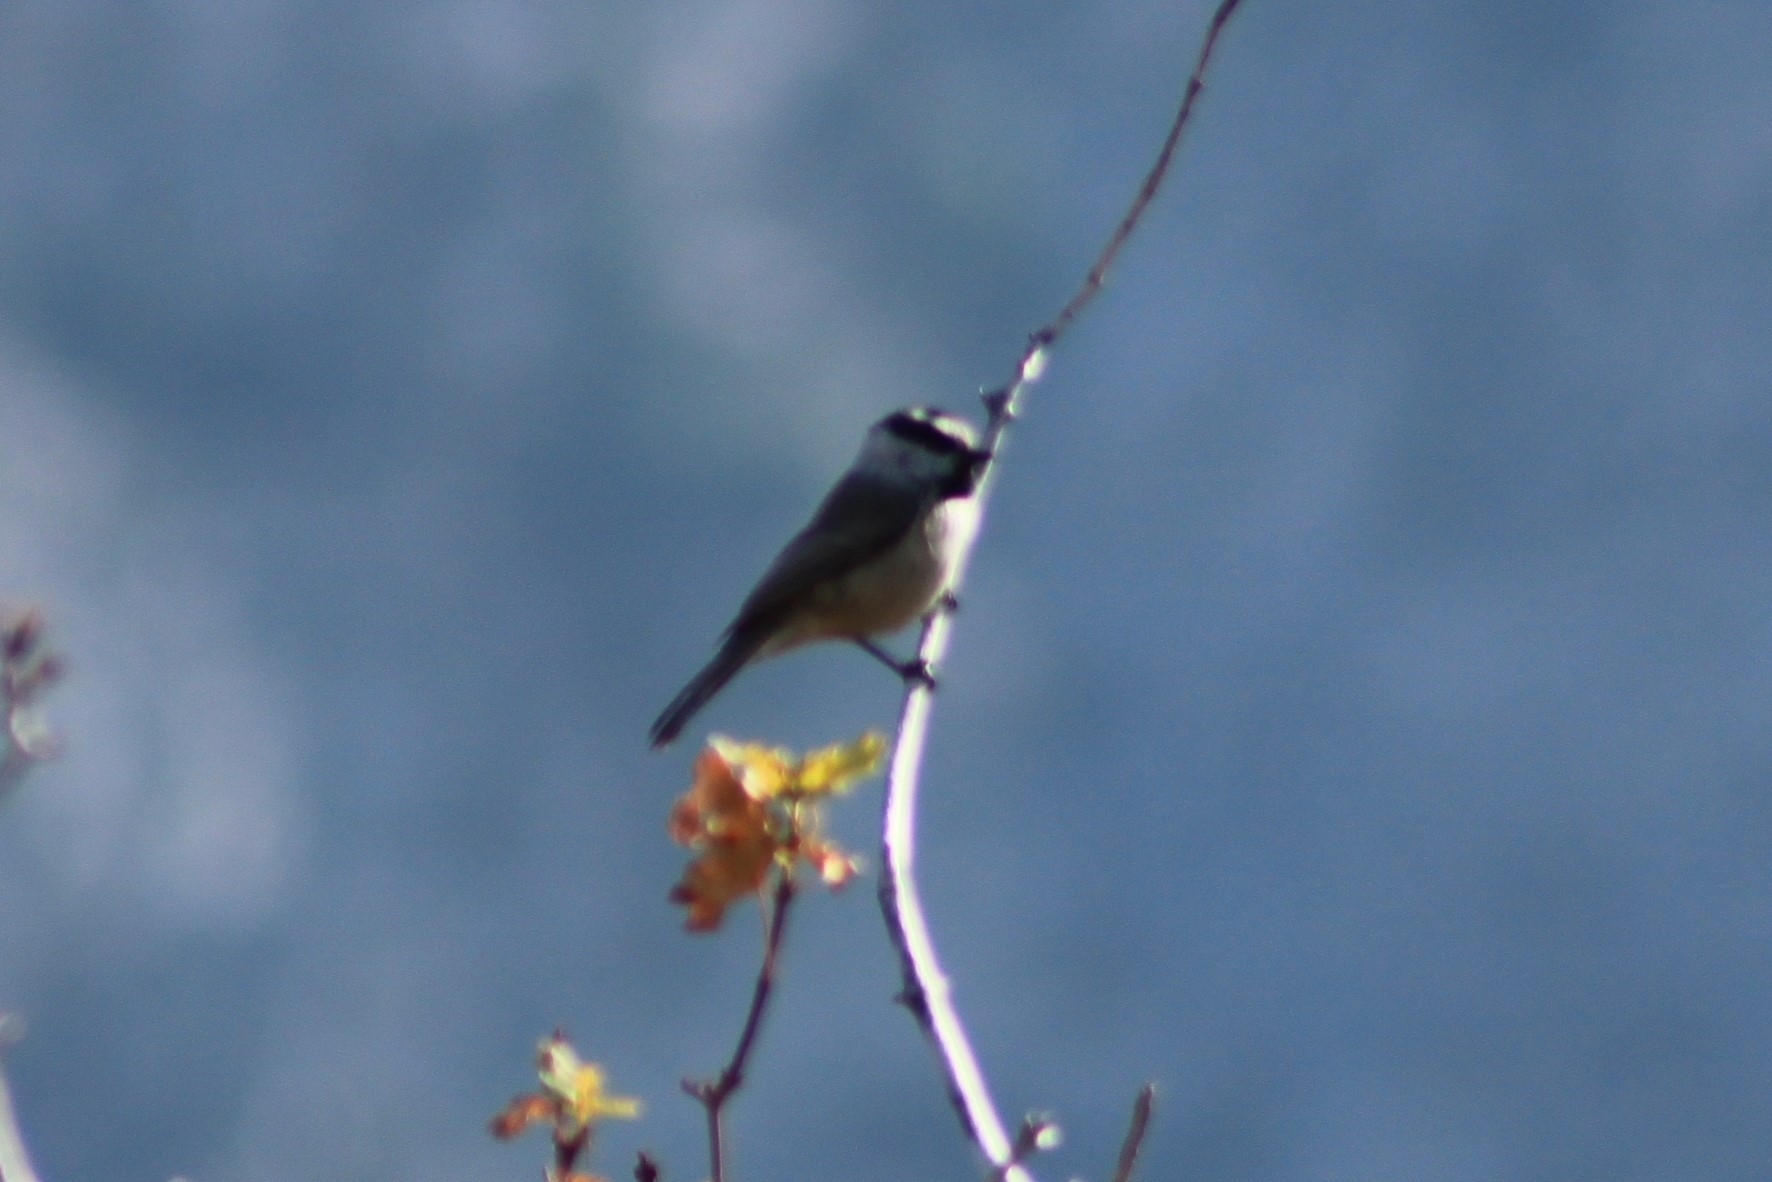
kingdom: Animalia
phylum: Chordata
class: Aves
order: Passeriformes
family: Paridae
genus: Poecile
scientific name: Poecile gambeli
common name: Mountain chickadee
